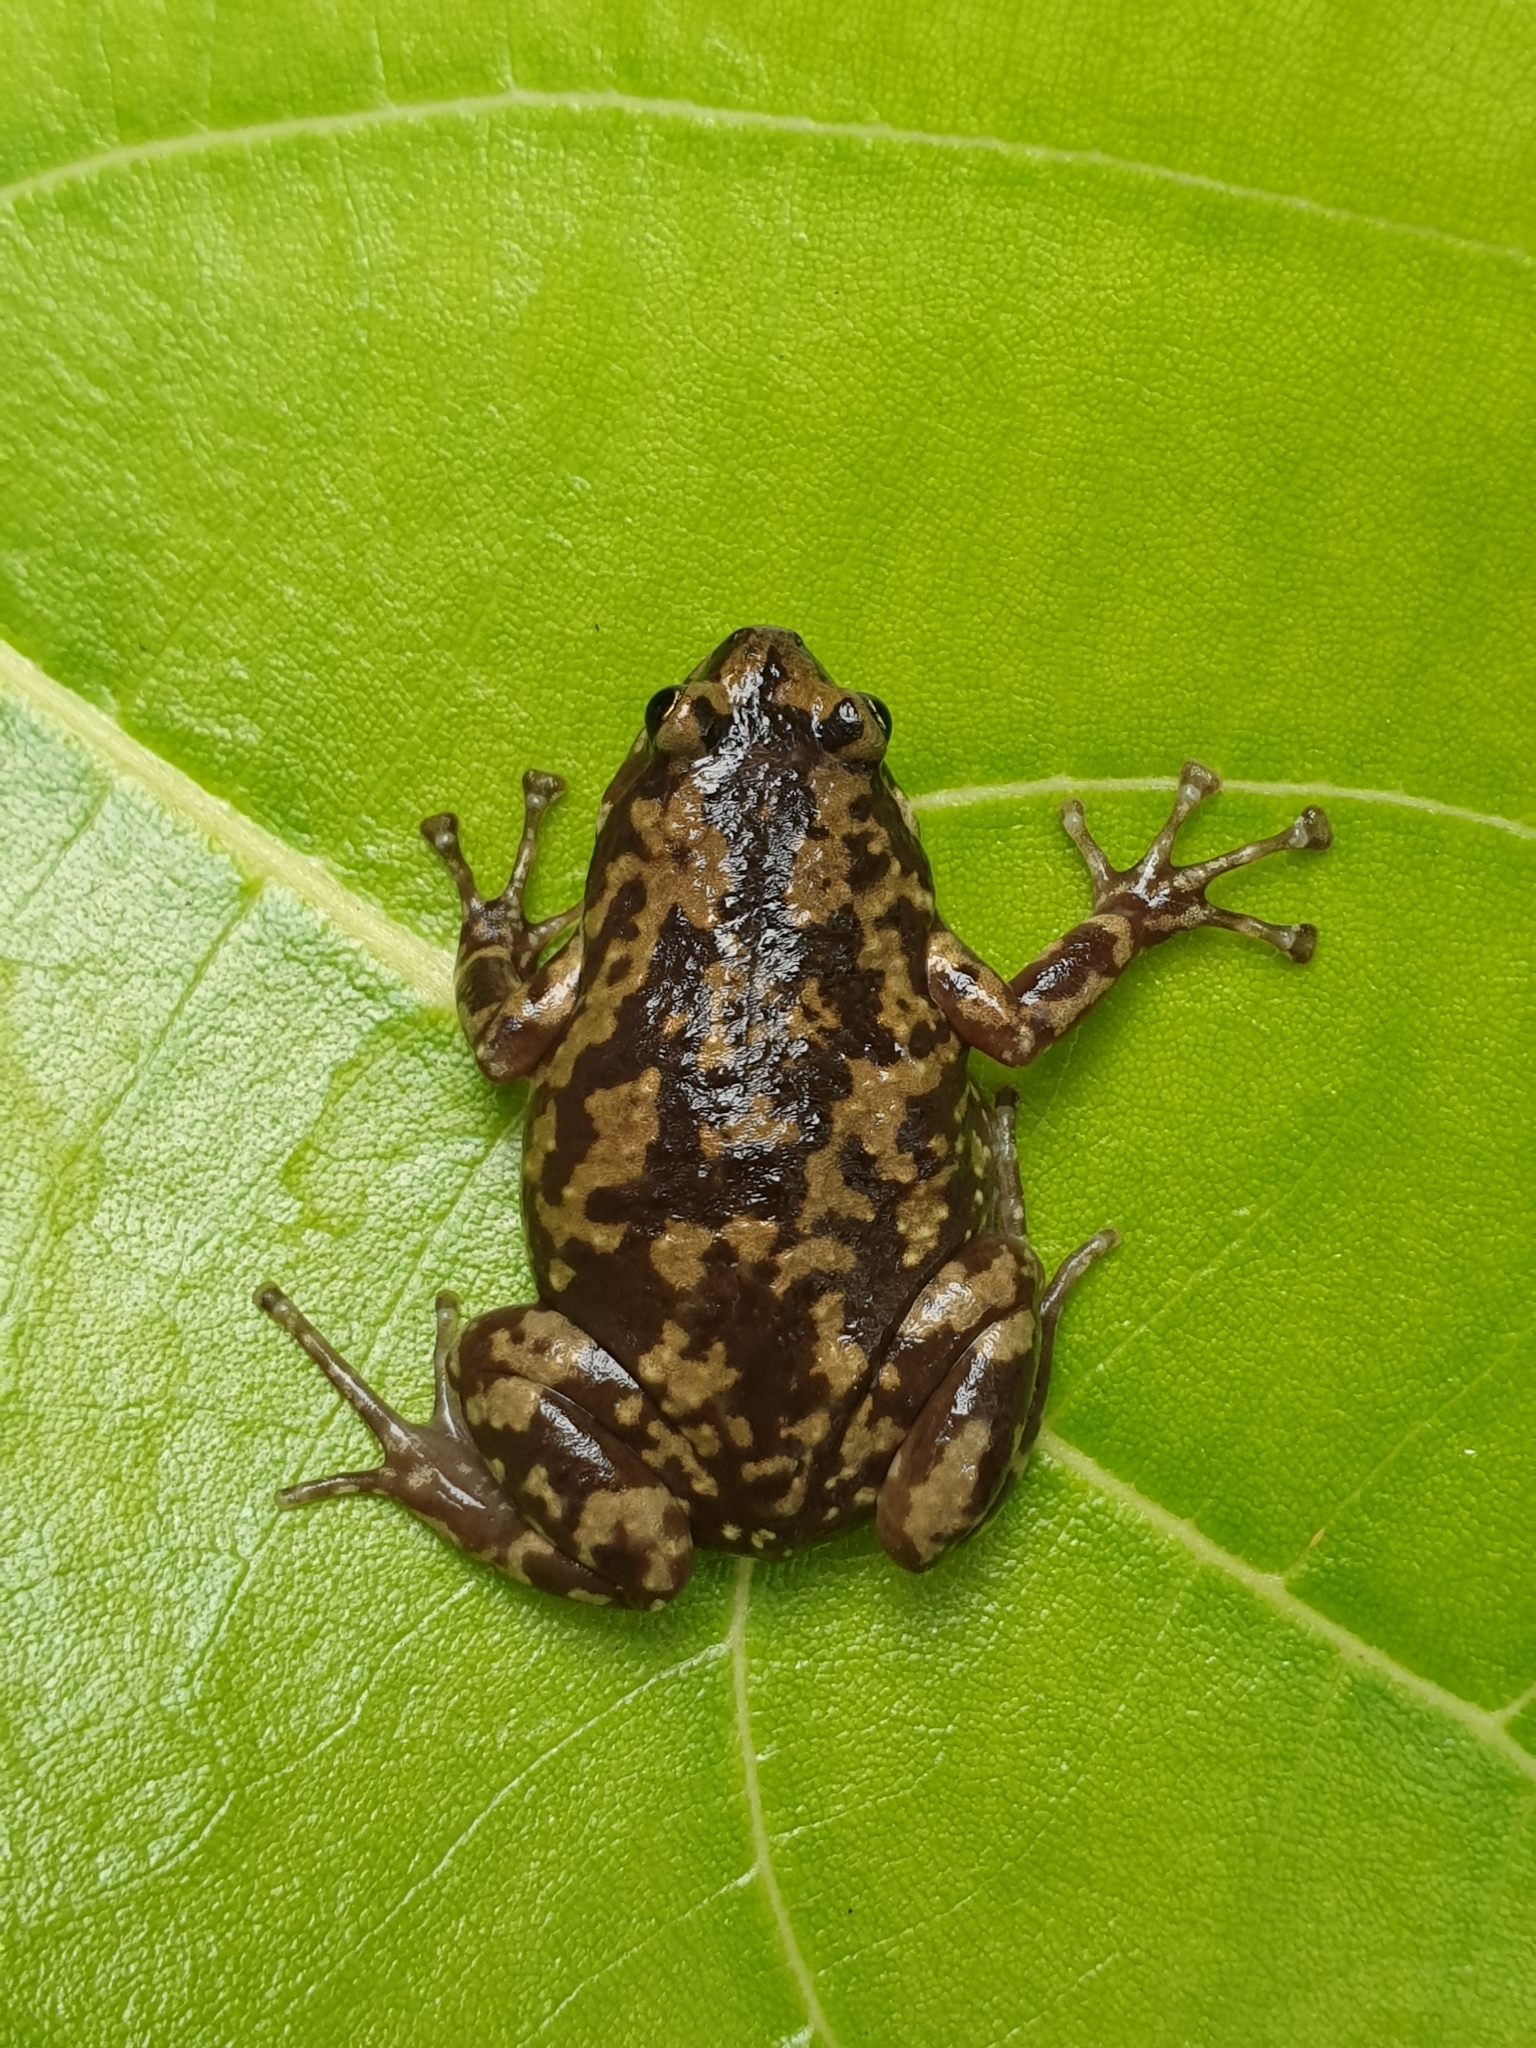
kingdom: Animalia
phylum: Chordata
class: Amphibia
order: Anura
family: Microhylidae
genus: Uperodon
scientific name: Uperodon rohani
